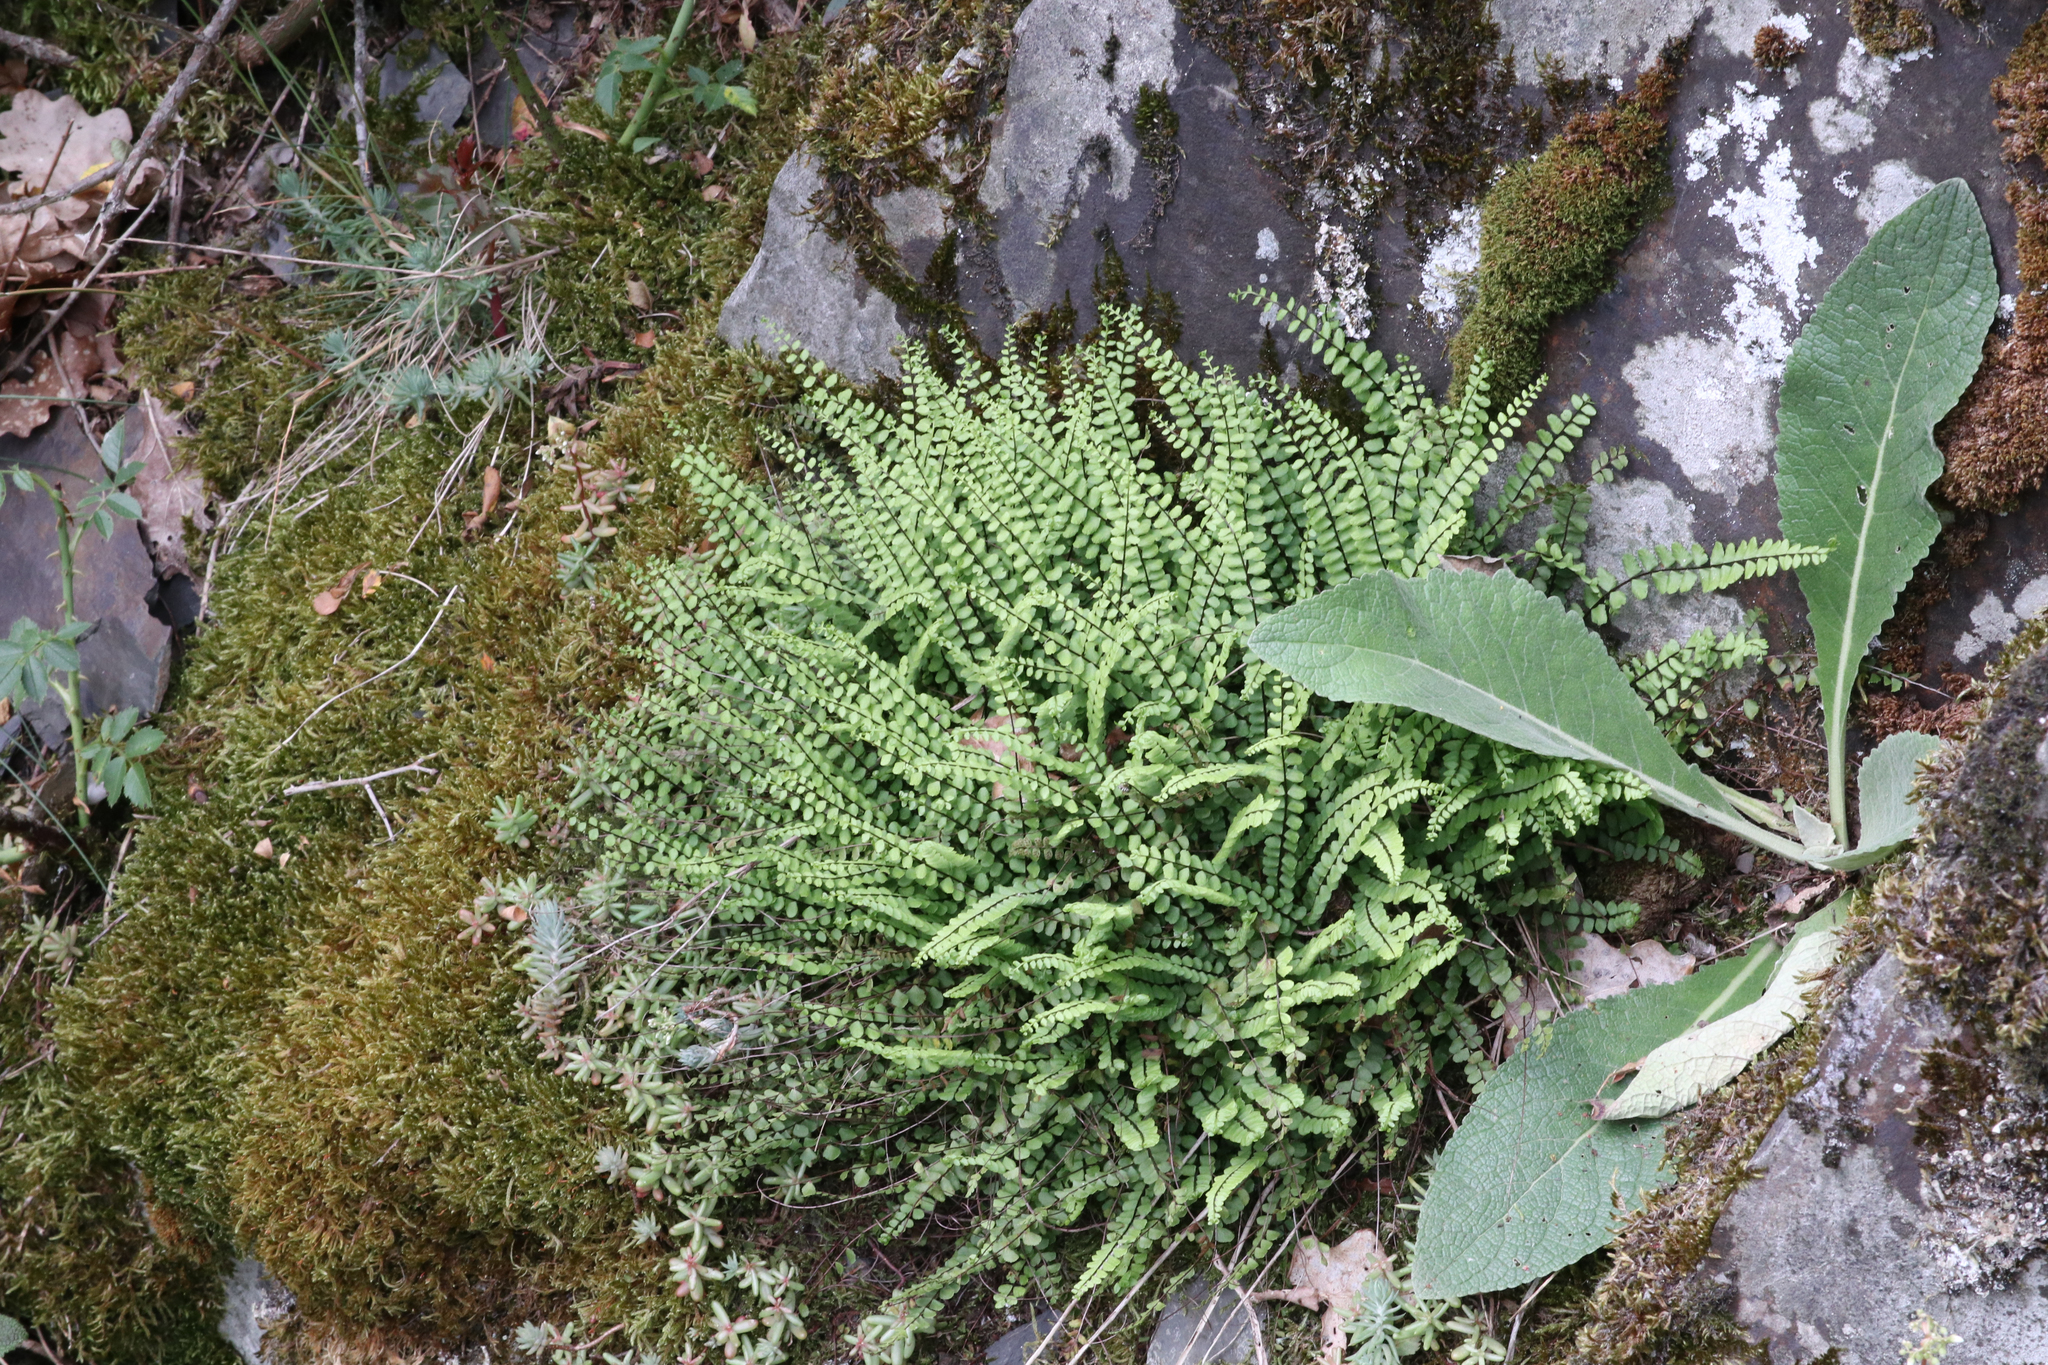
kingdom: Plantae
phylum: Tracheophyta
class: Polypodiopsida
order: Polypodiales
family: Aspleniaceae
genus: Asplenium
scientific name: Asplenium trichomanes
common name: Maidenhair spleenwort
